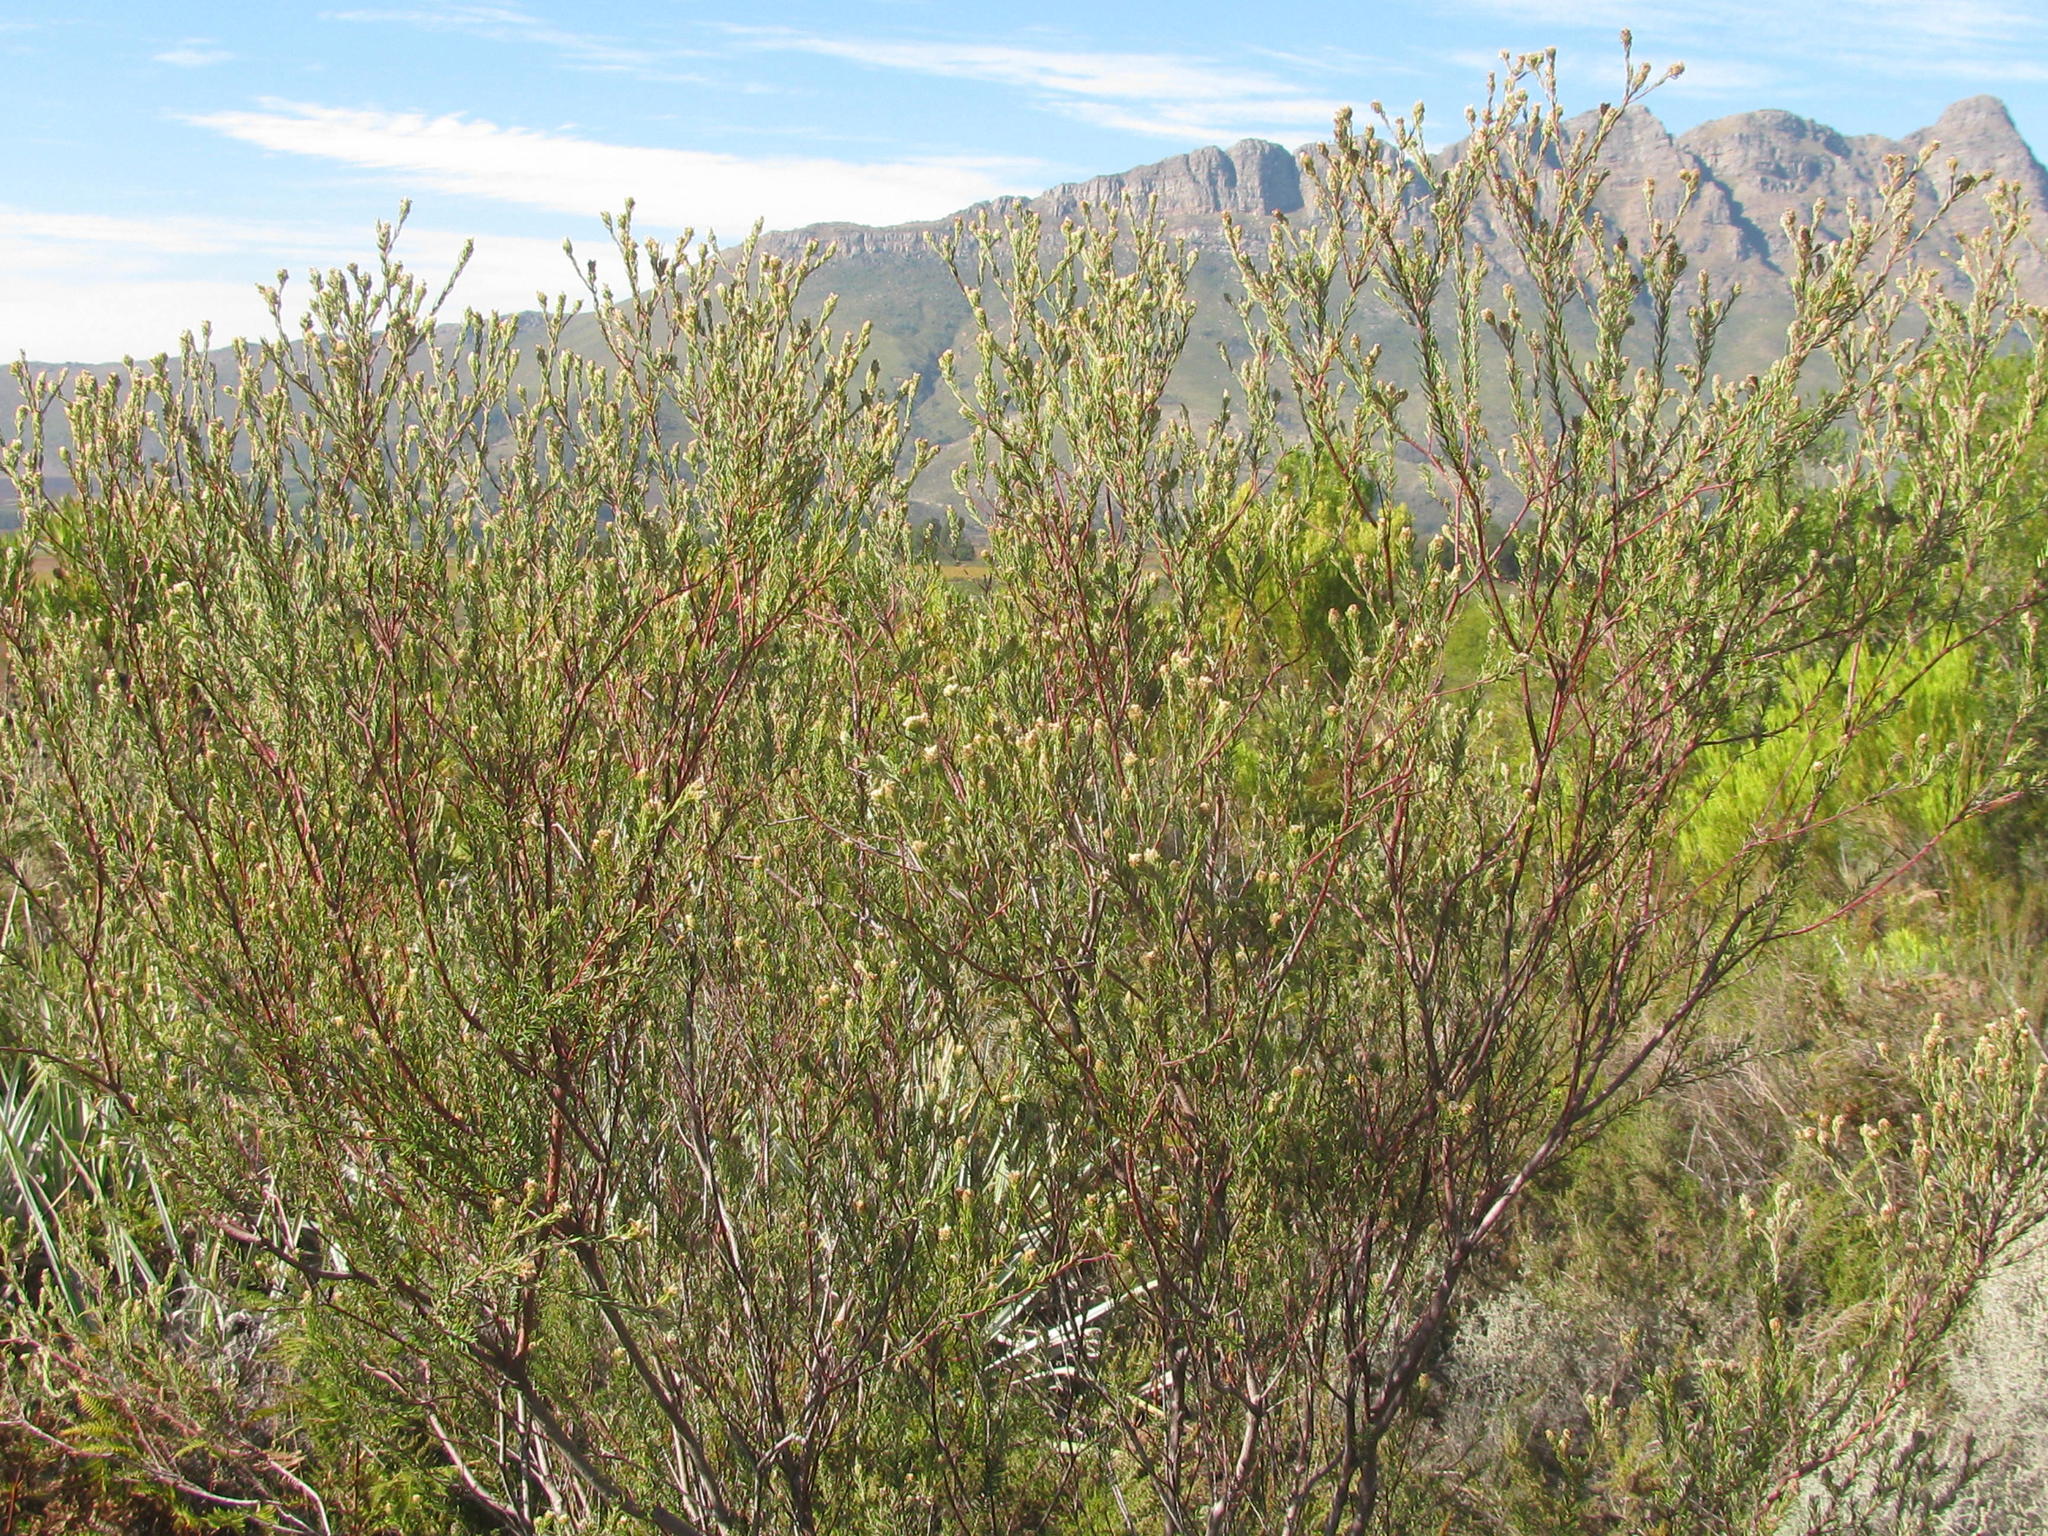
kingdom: Plantae
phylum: Tracheophyta
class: Magnoliopsida
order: Rosales
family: Rhamnaceae
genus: Phylica
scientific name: Phylica excelsa
